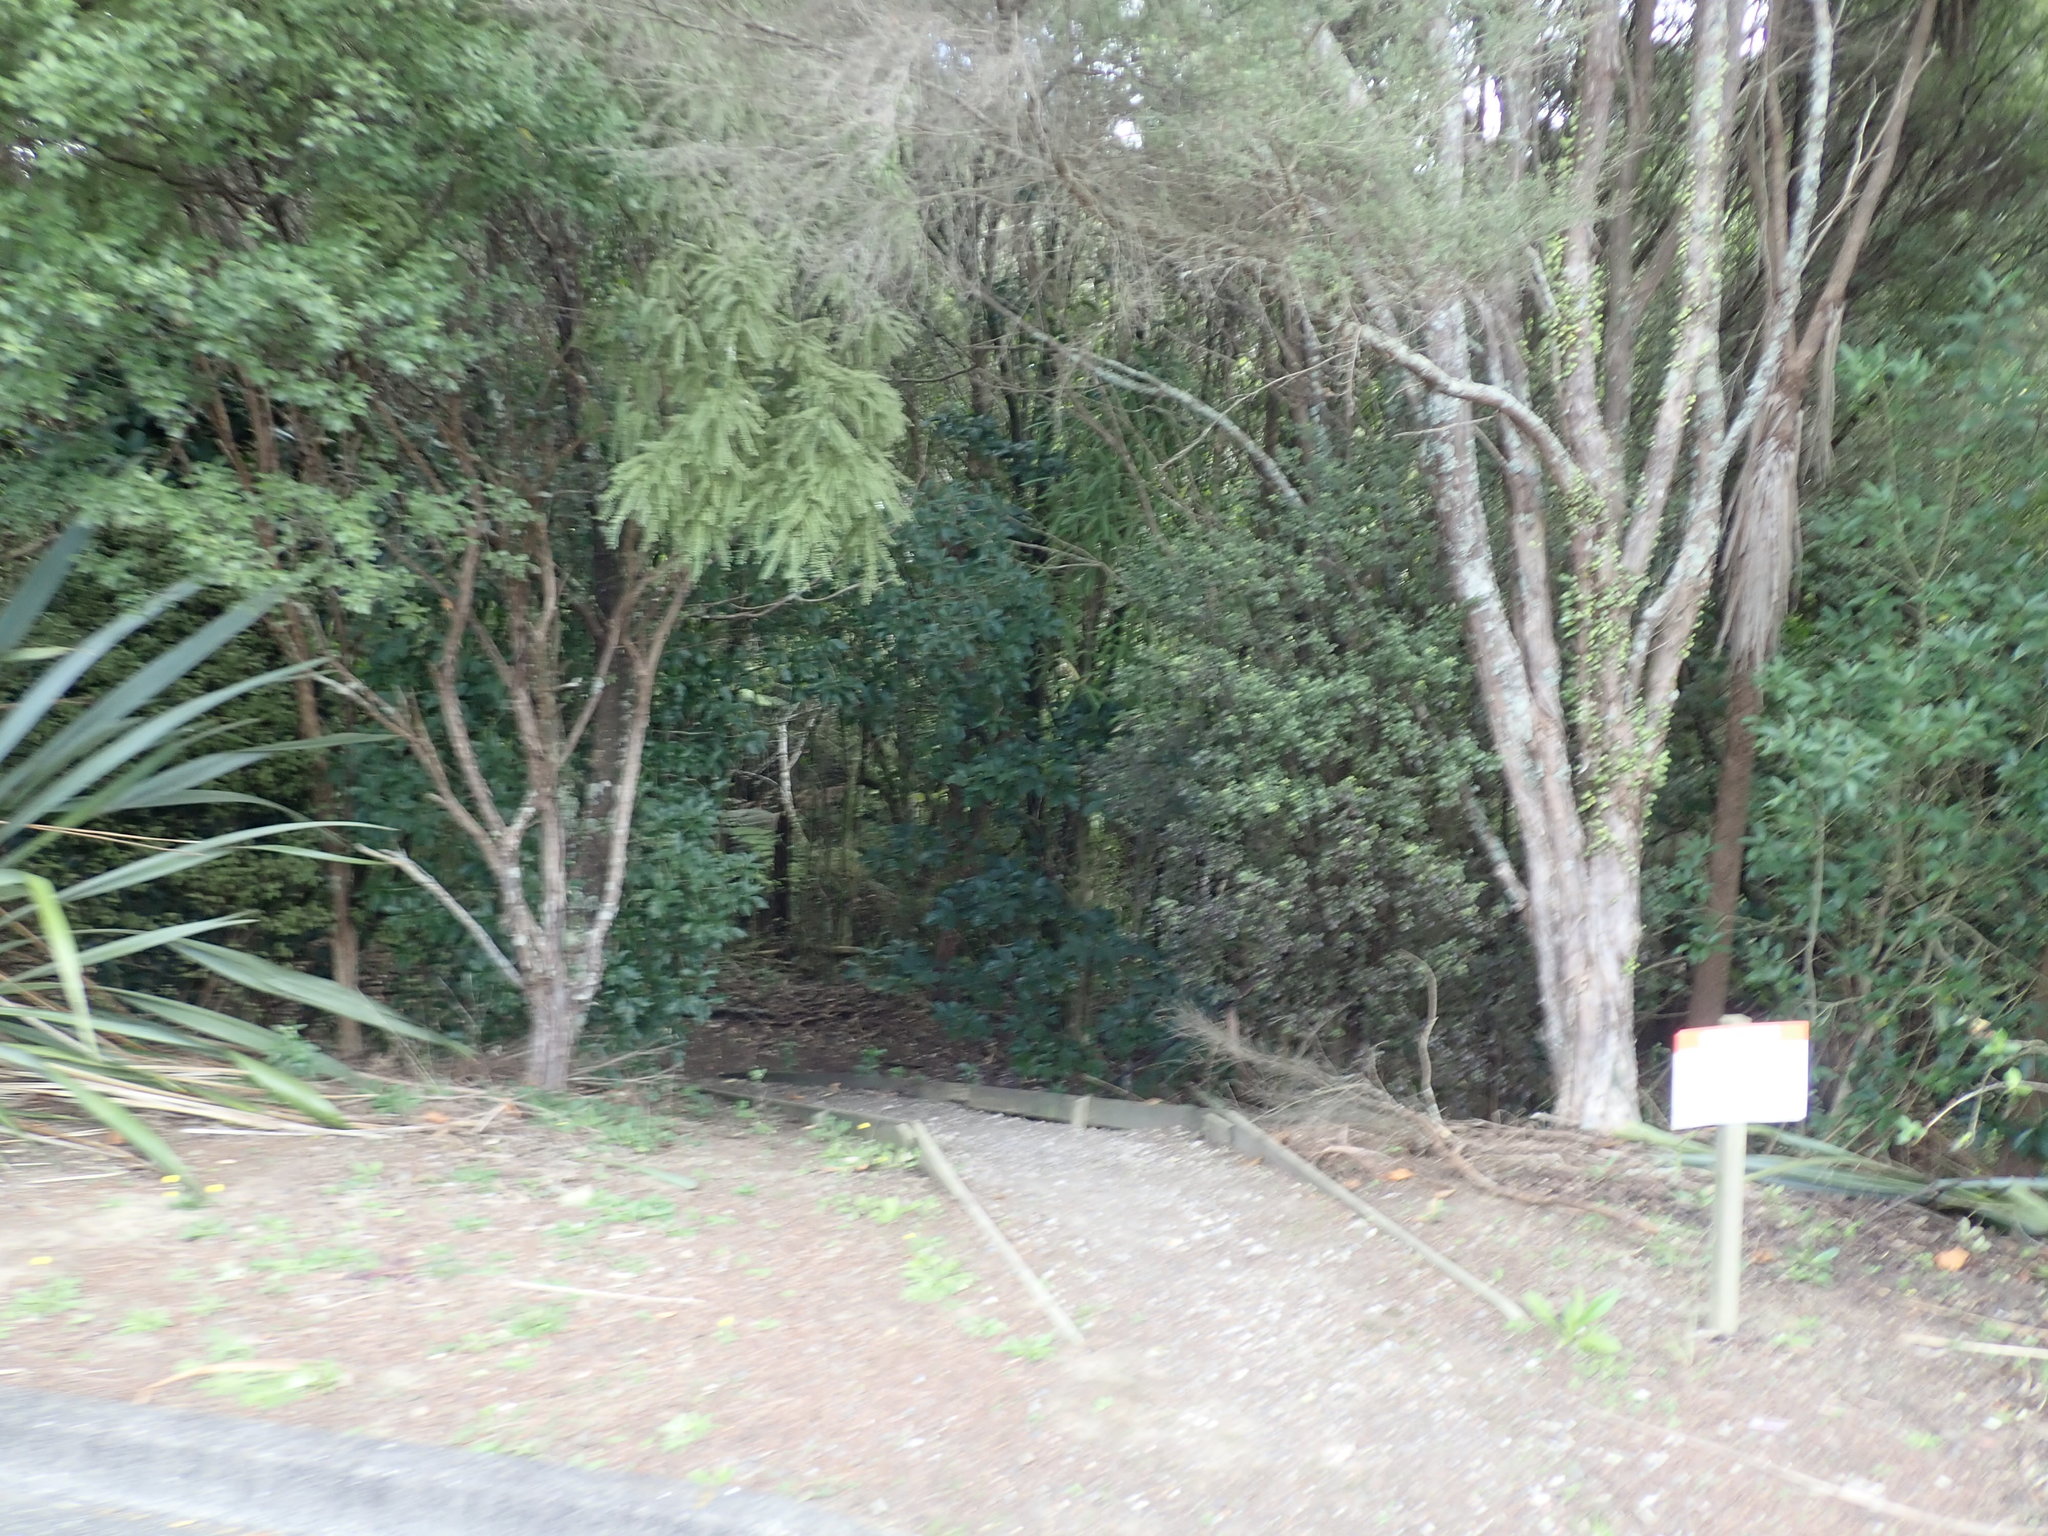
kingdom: Plantae
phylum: Tracheophyta
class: Polypodiopsida
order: Polypodiales
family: Polypodiaceae
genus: Pyrrosia
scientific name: Pyrrosia eleagnifolia
